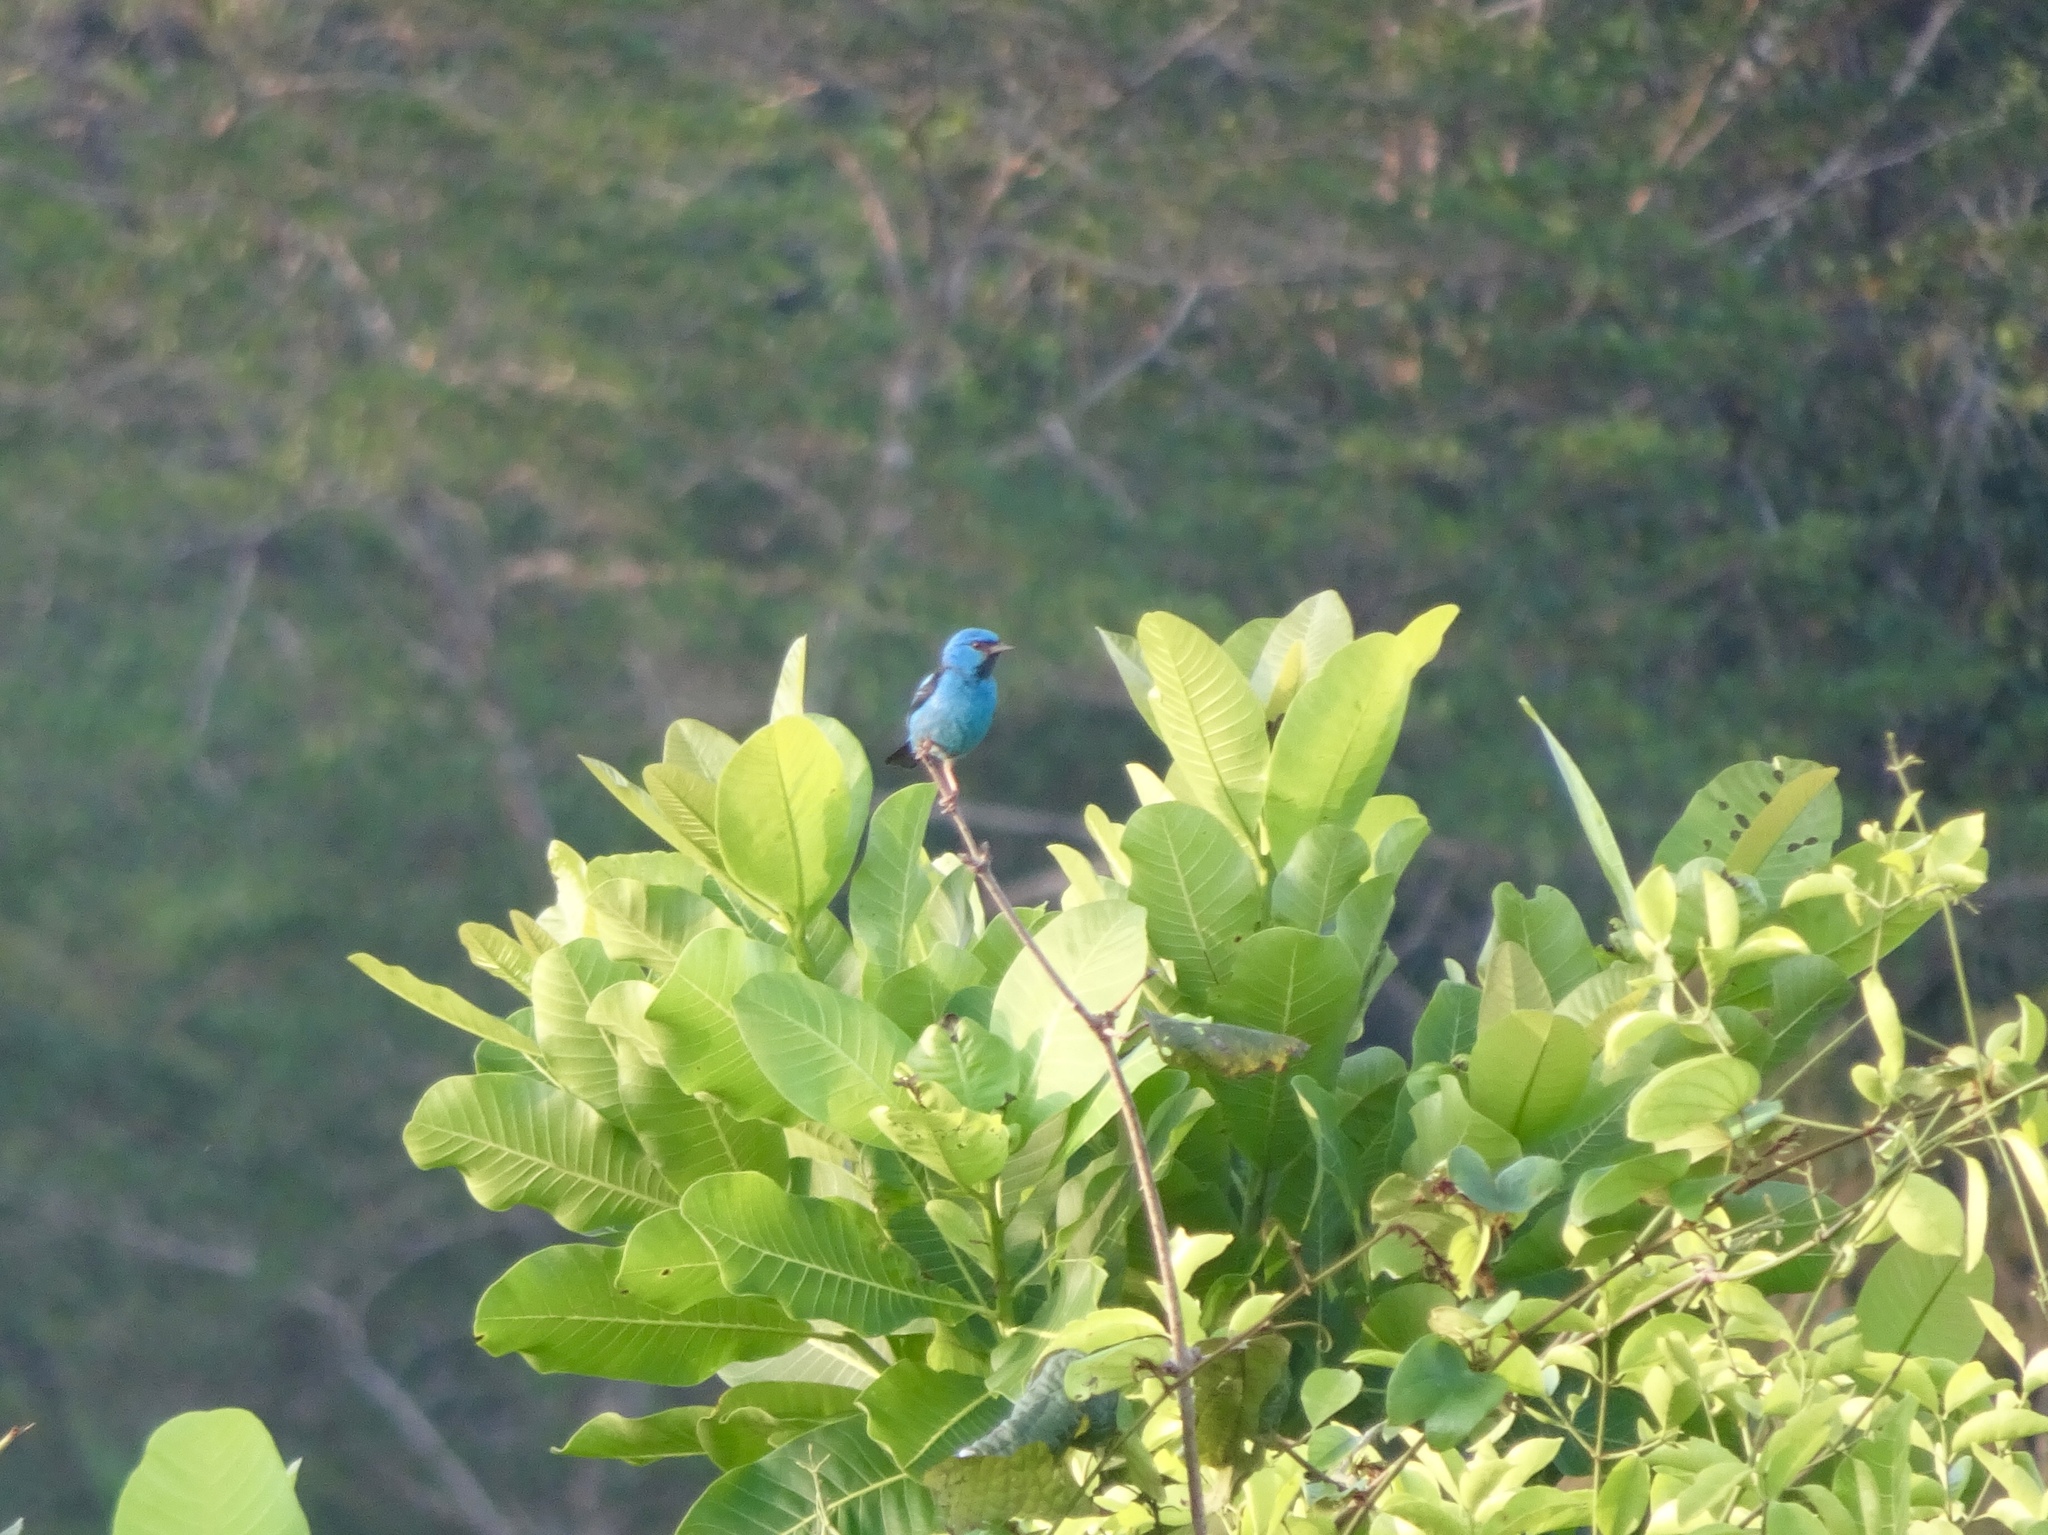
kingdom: Animalia
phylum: Chordata
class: Aves
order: Passeriformes
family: Thraupidae
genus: Dacnis
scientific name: Dacnis cayana
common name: Blue dacnis
